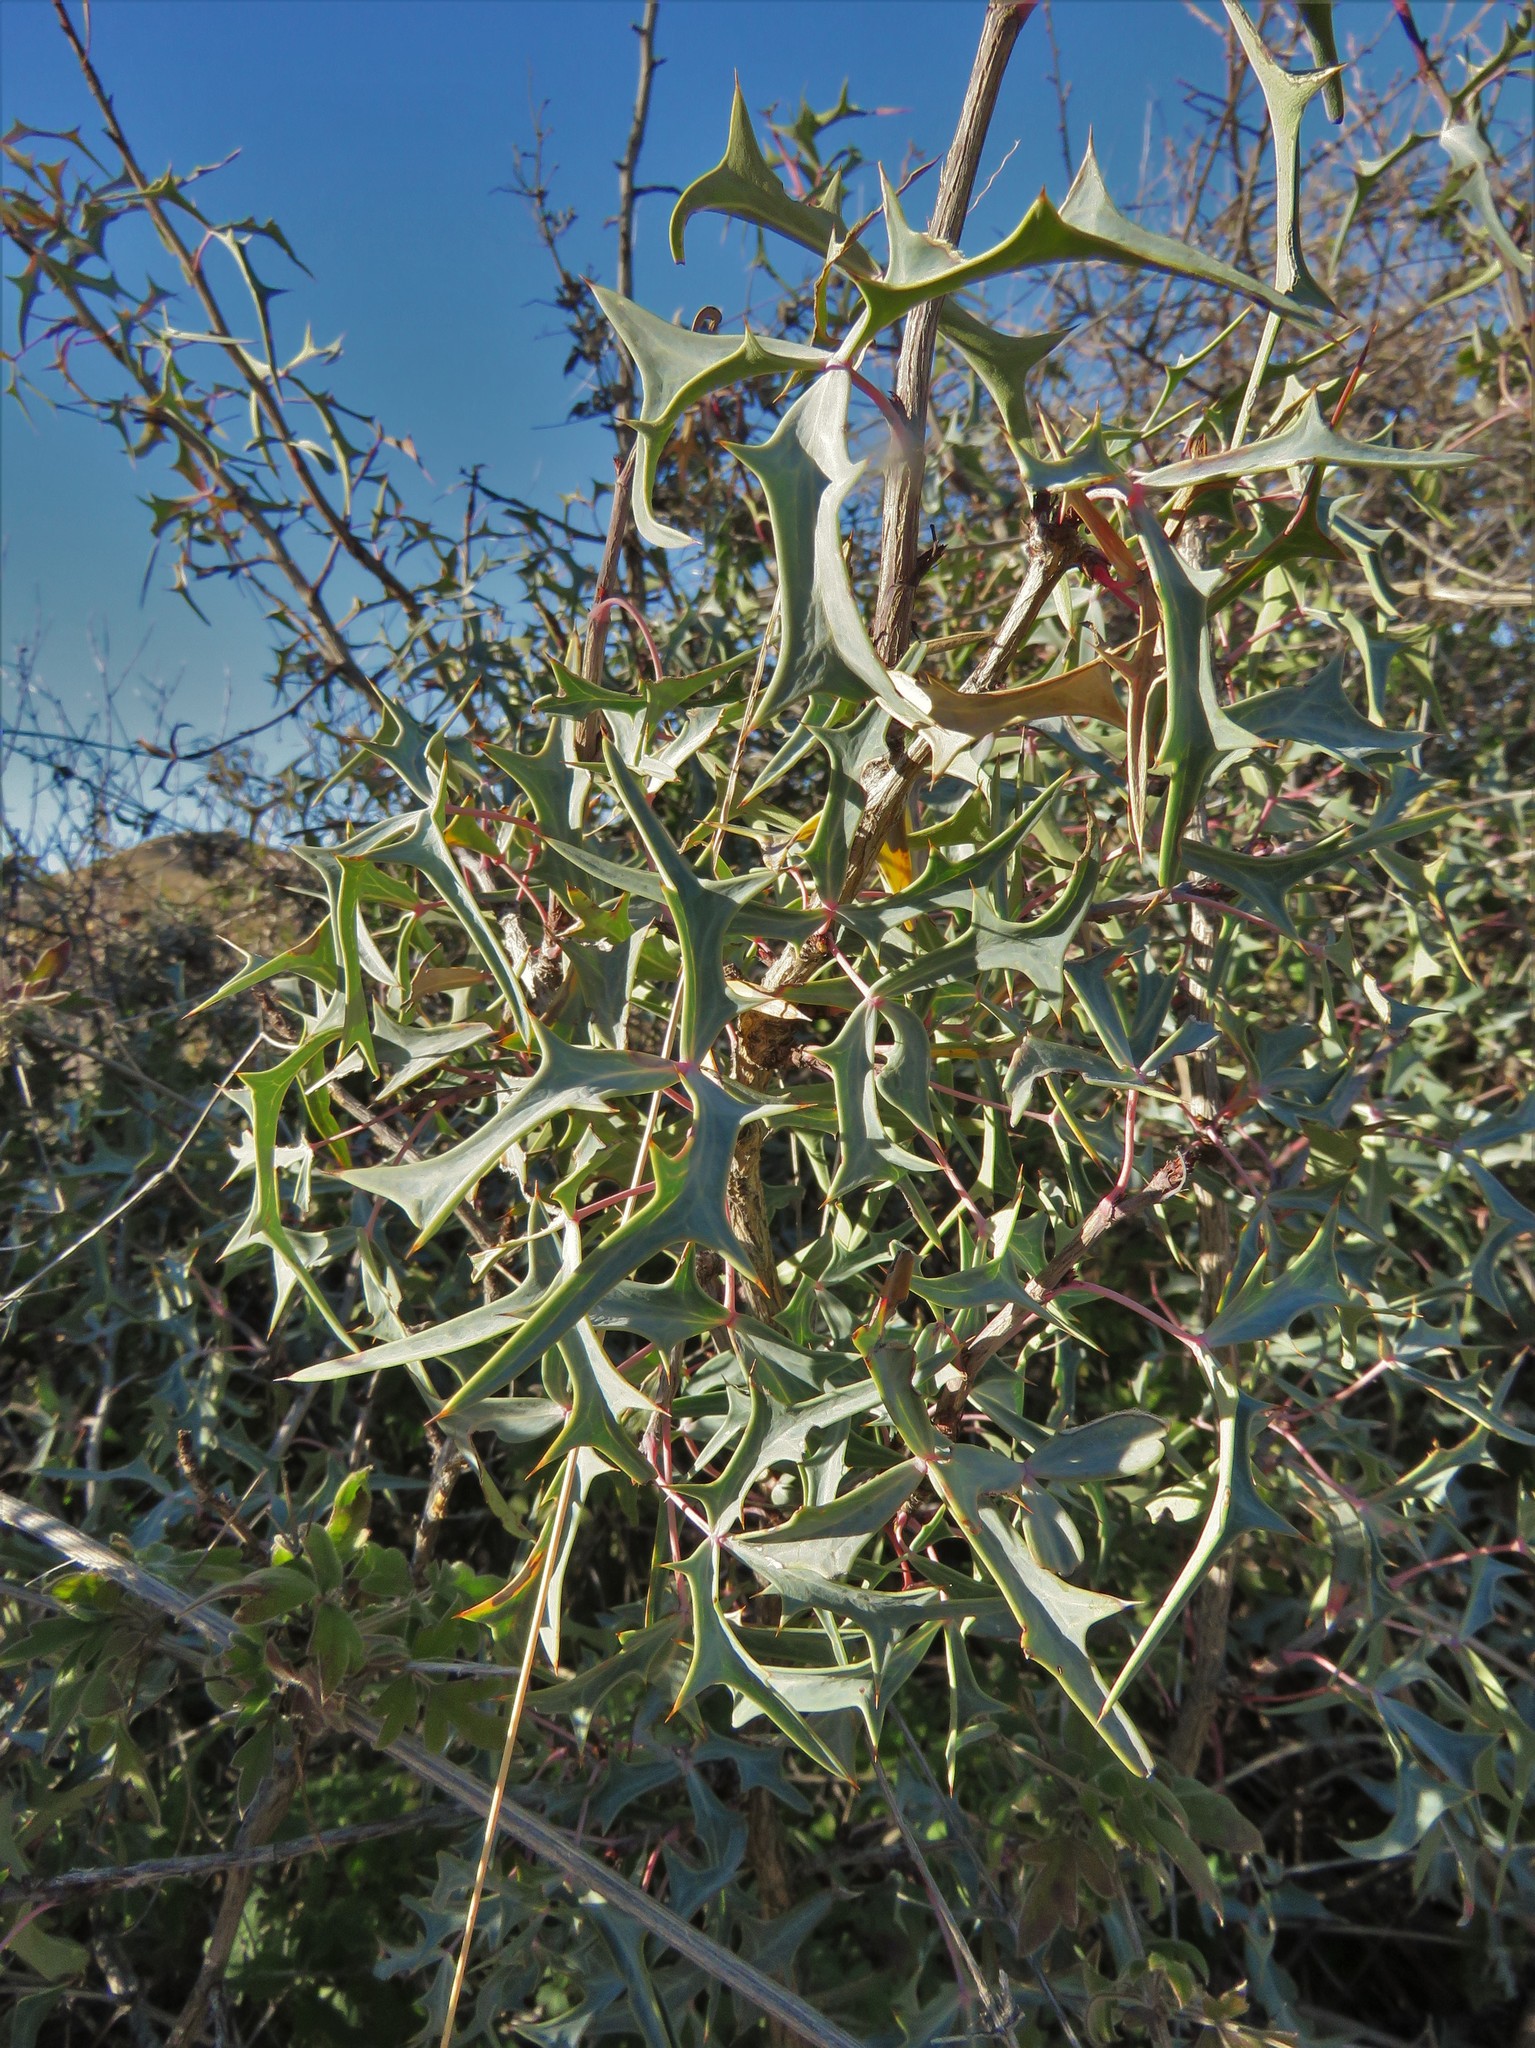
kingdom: Plantae
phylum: Tracheophyta
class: Magnoliopsida
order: Ranunculales
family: Berberidaceae
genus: Alloberberis
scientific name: Alloberberis trifoliolata
